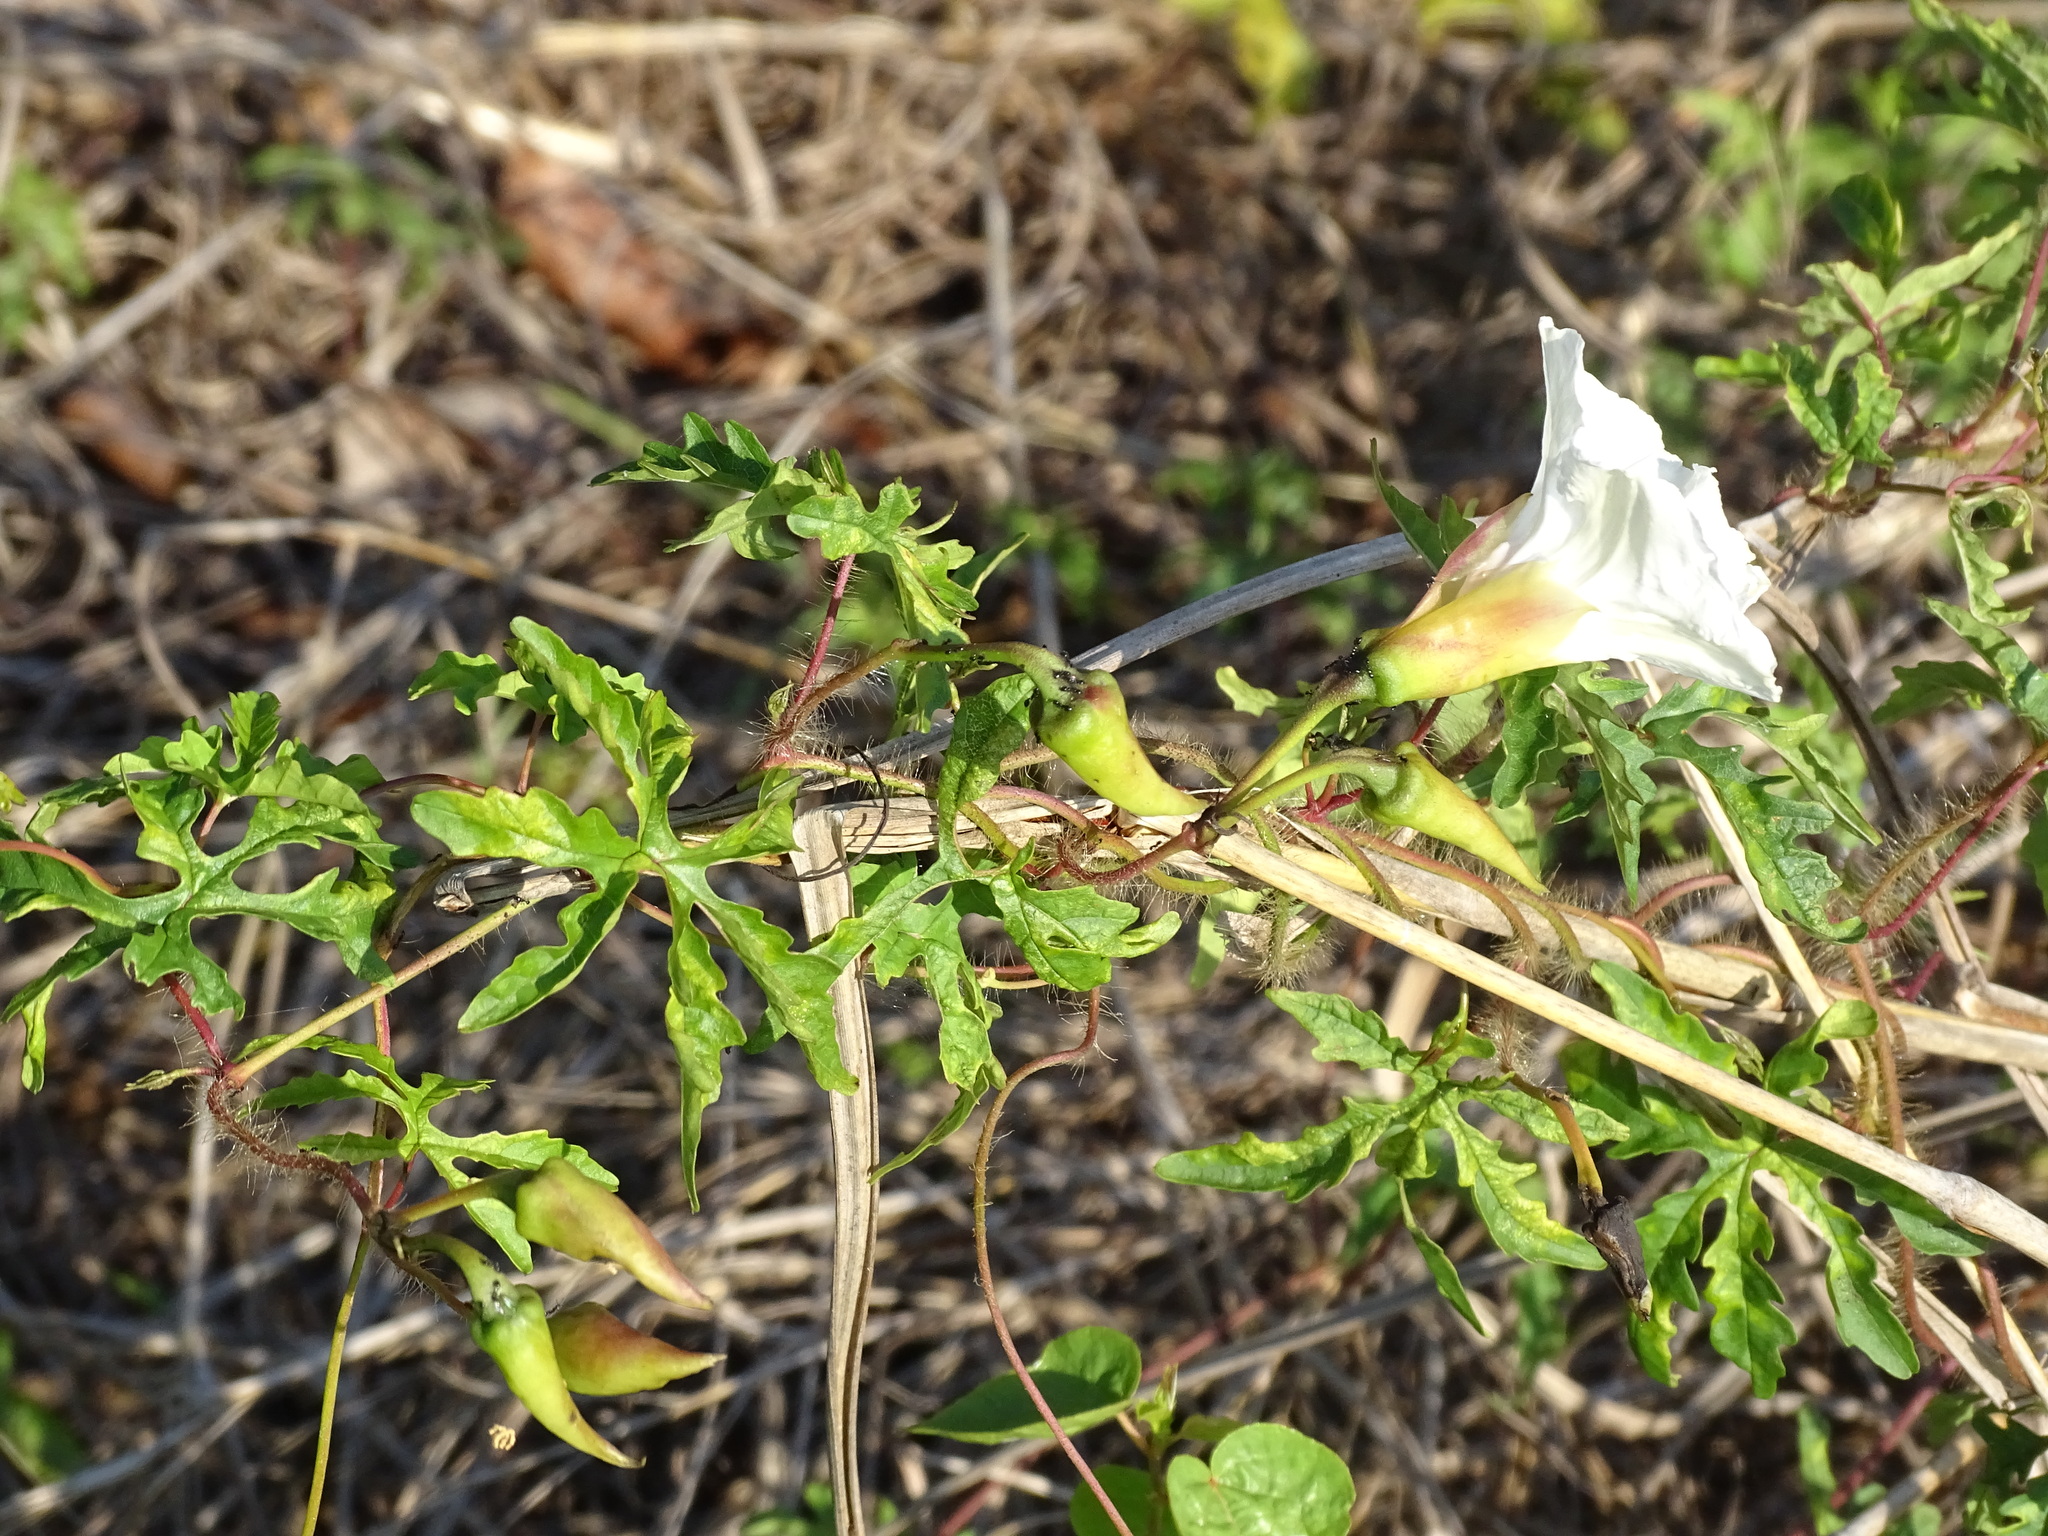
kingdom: Plantae
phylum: Tracheophyta
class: Magnoliopsida
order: Solanales
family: Convolvulaceae
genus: Distimake
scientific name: Distimake dissectus
